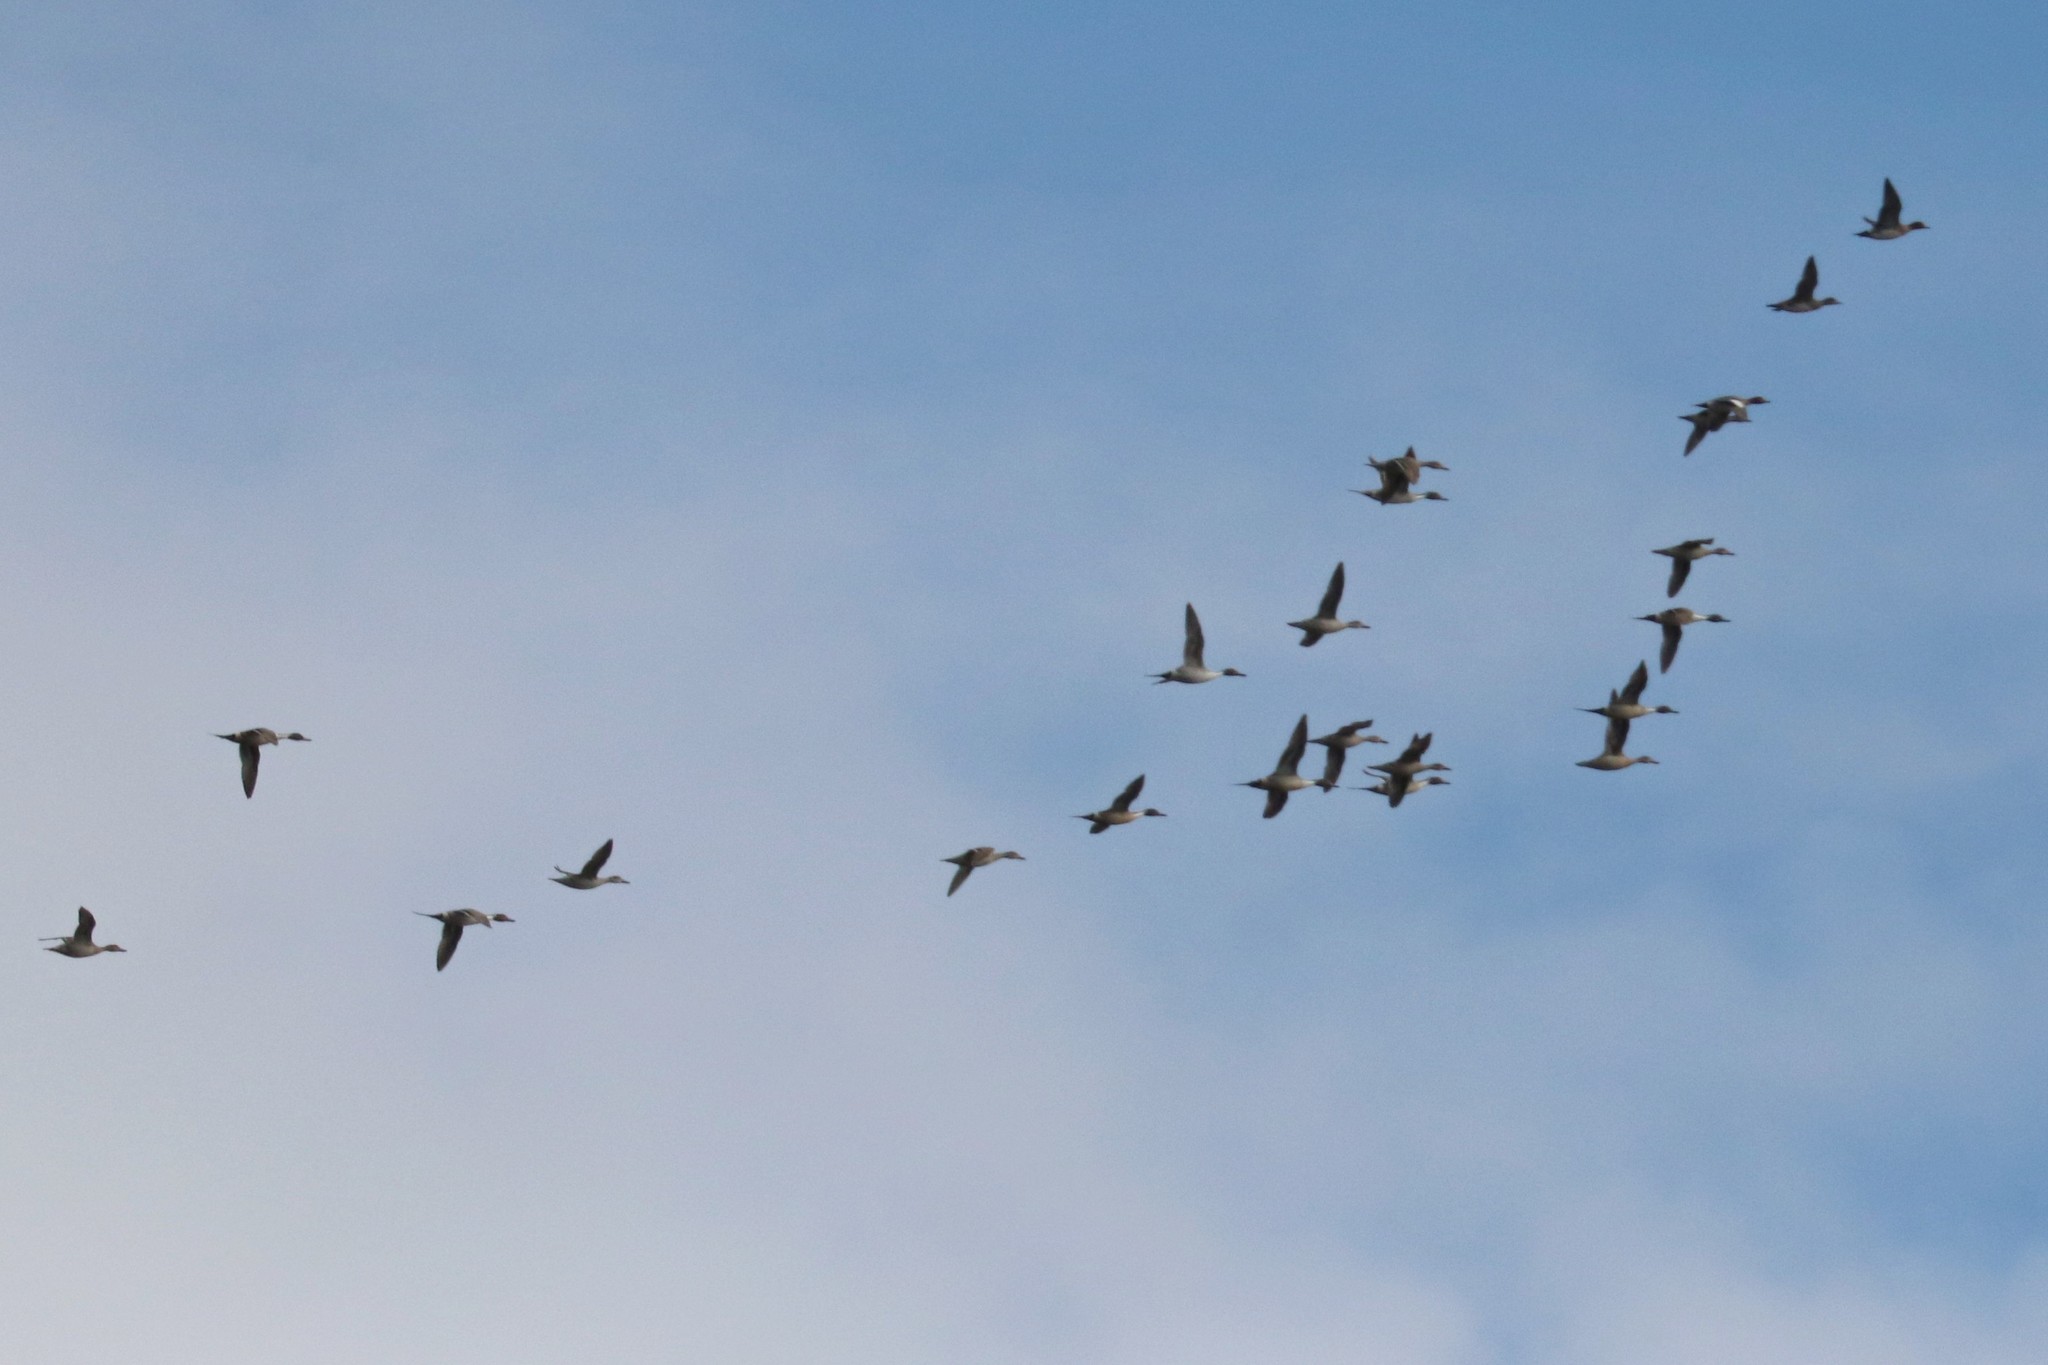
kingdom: Animalia
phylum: Chordata
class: Aves
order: Anseriformes
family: Anatidae
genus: Anas
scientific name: Anas acuta
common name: Northern pintail
